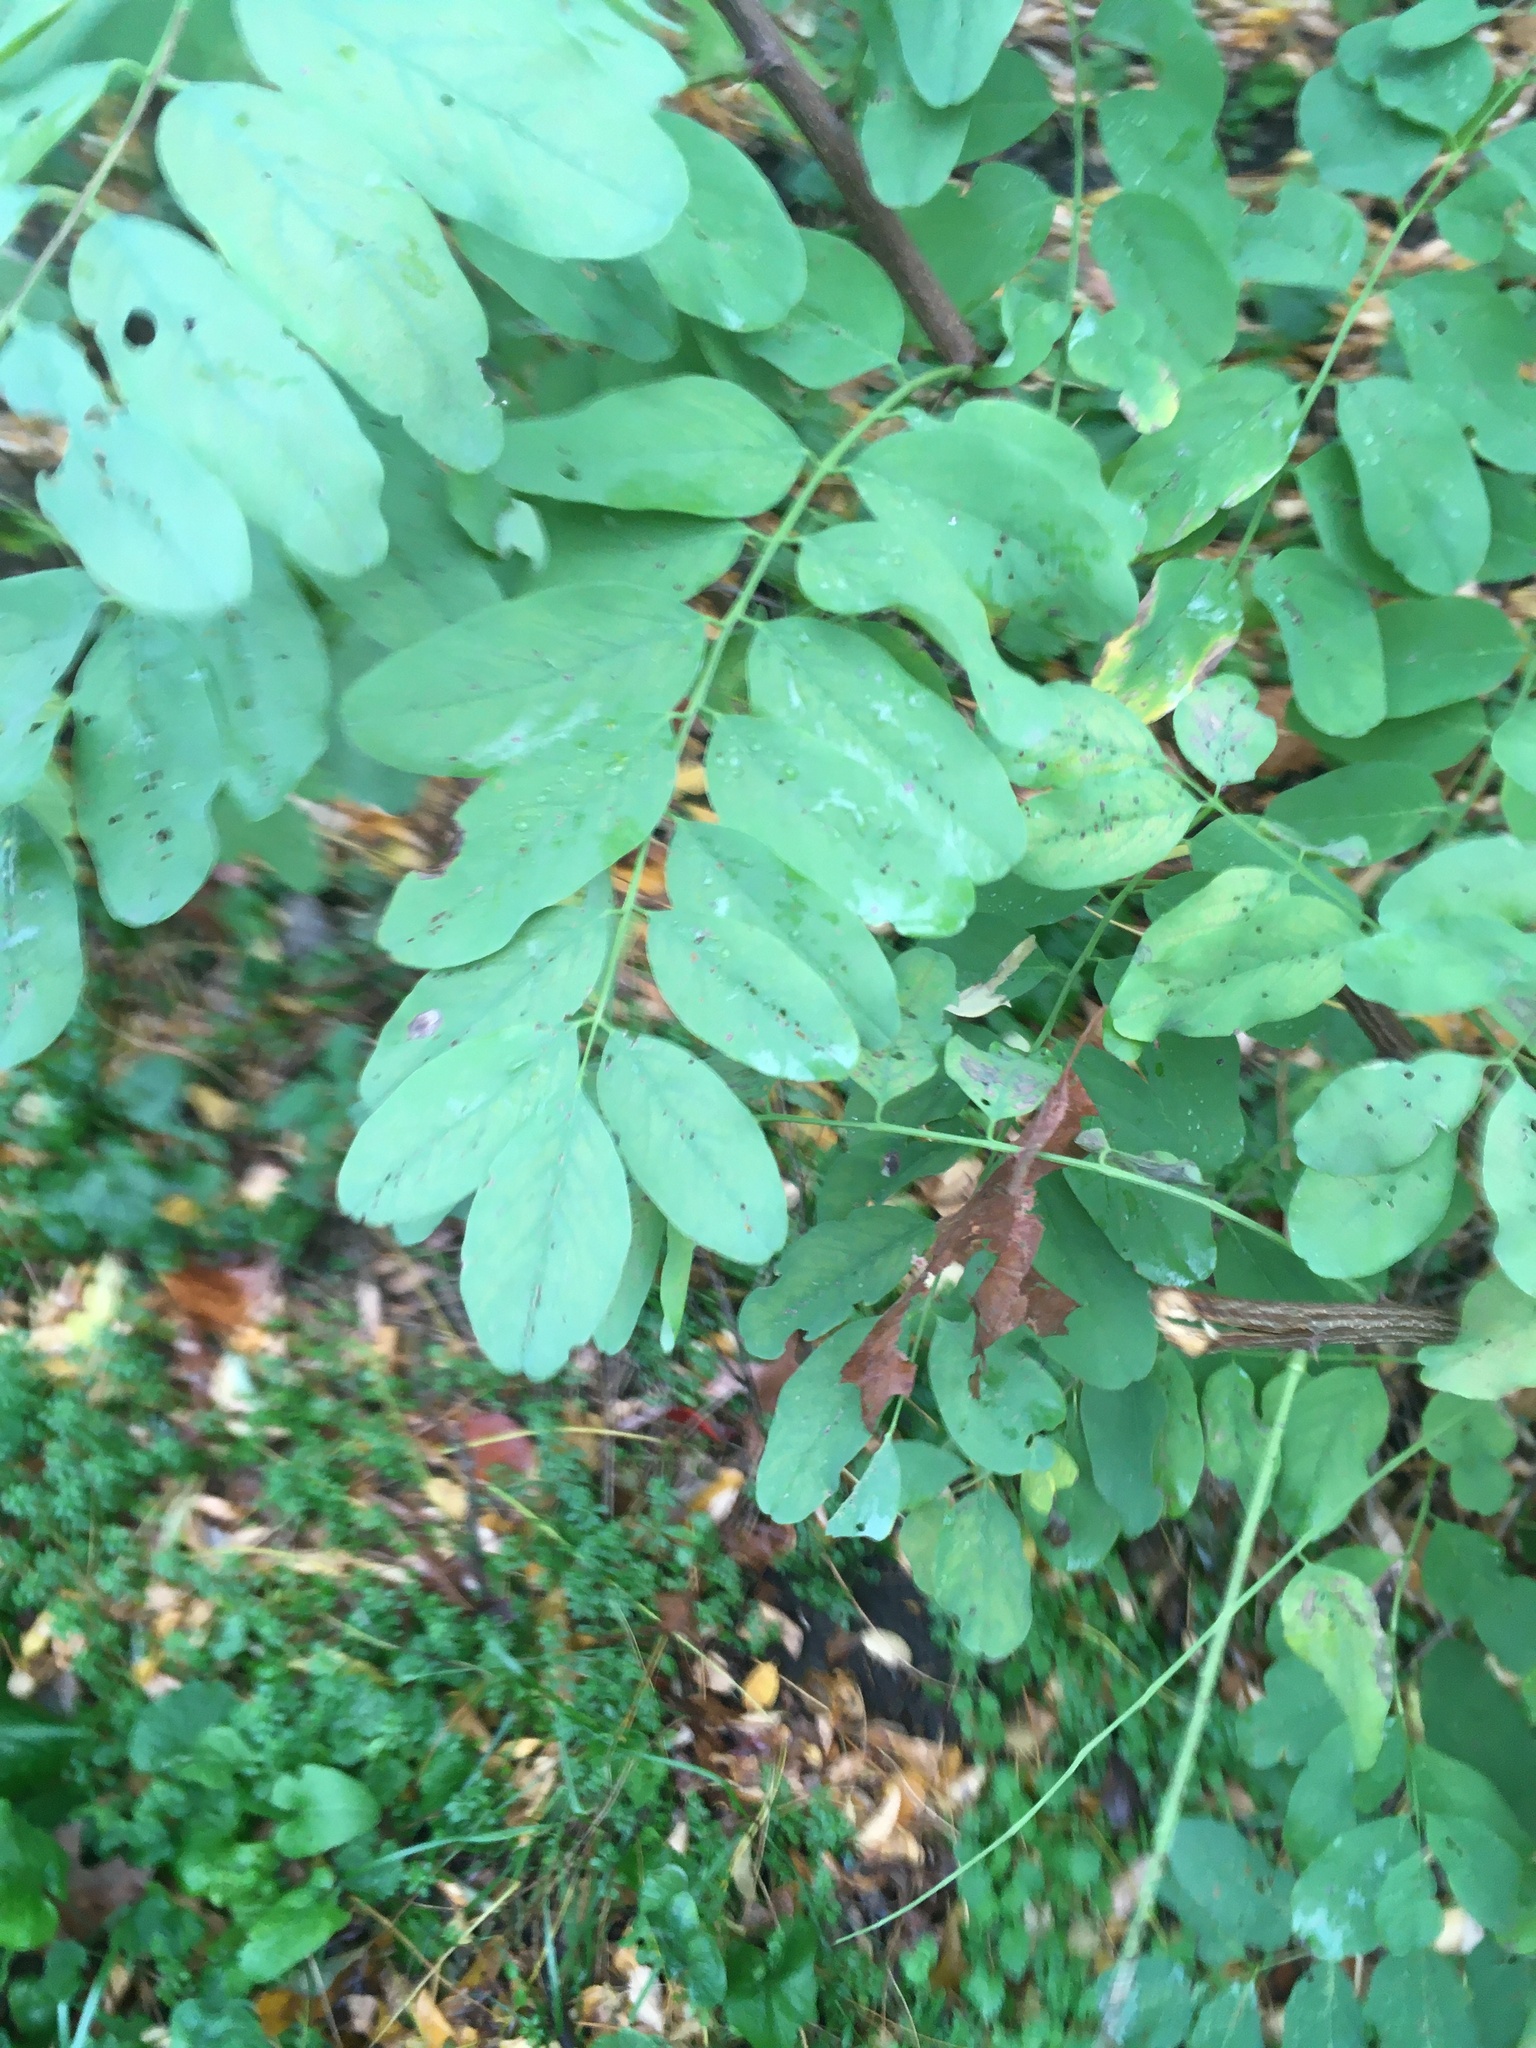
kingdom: Plantae
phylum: Tracheophyta
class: Magnoliopsida
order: Fabales
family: Fabaceae
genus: Robinia
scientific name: Robinia pseudoacacia
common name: Black locust
